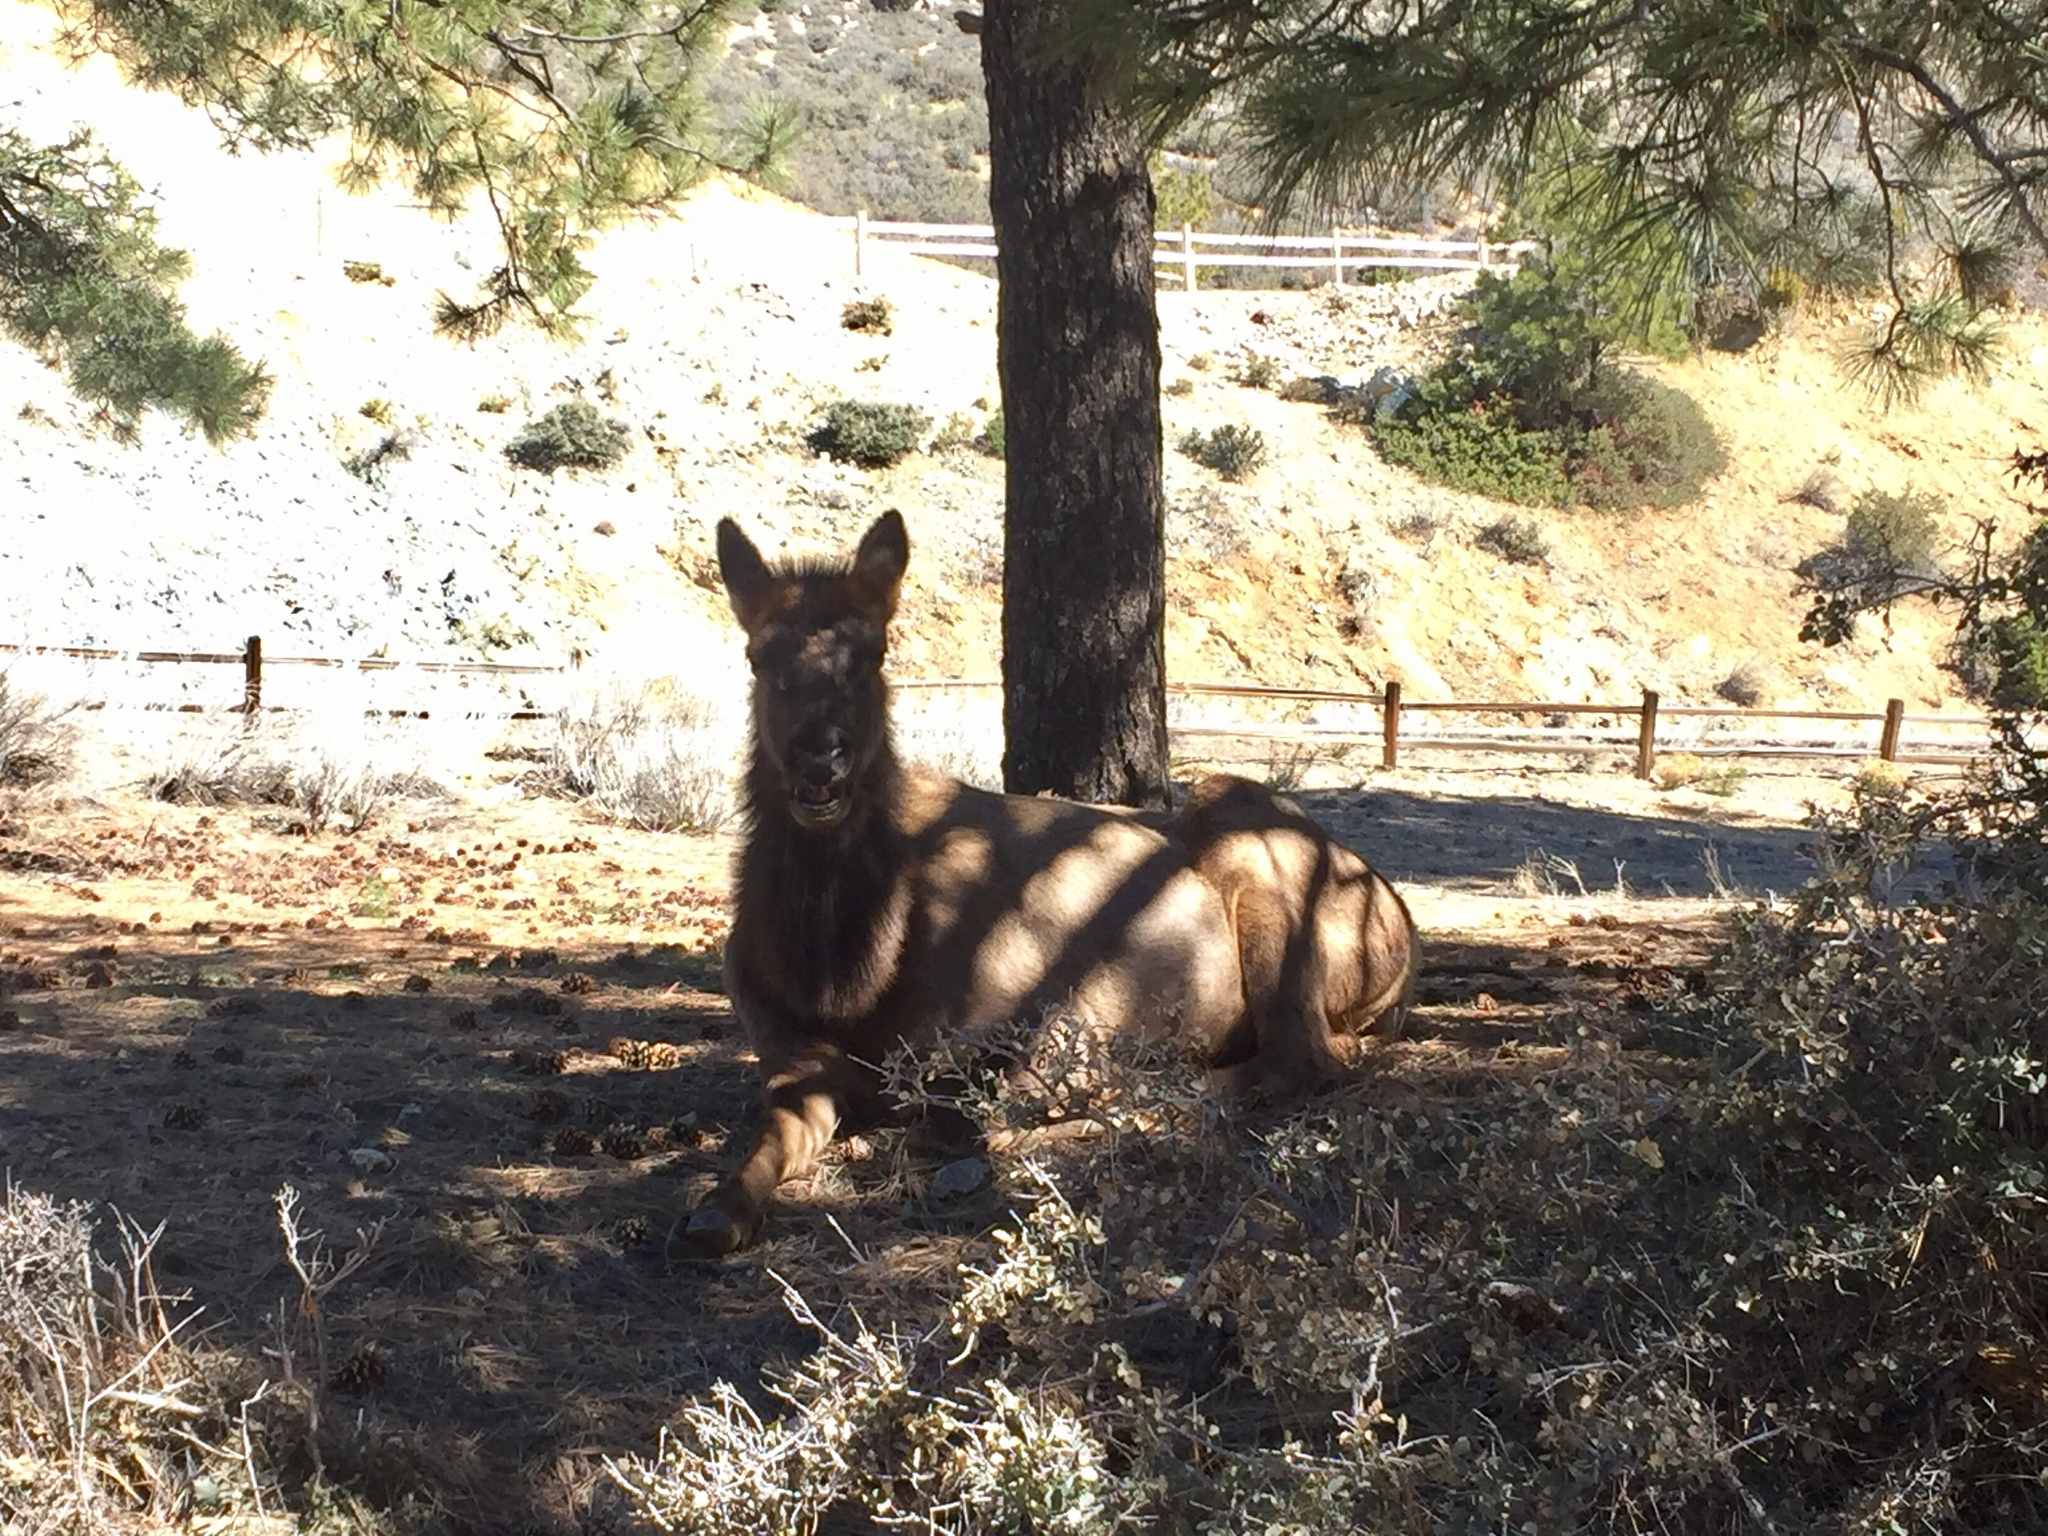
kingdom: Animalia
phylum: Chordata
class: Mammalia
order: Artiodactyla
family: Cervidae
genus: Cervus
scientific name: Cervus elaphus
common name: Red deer
